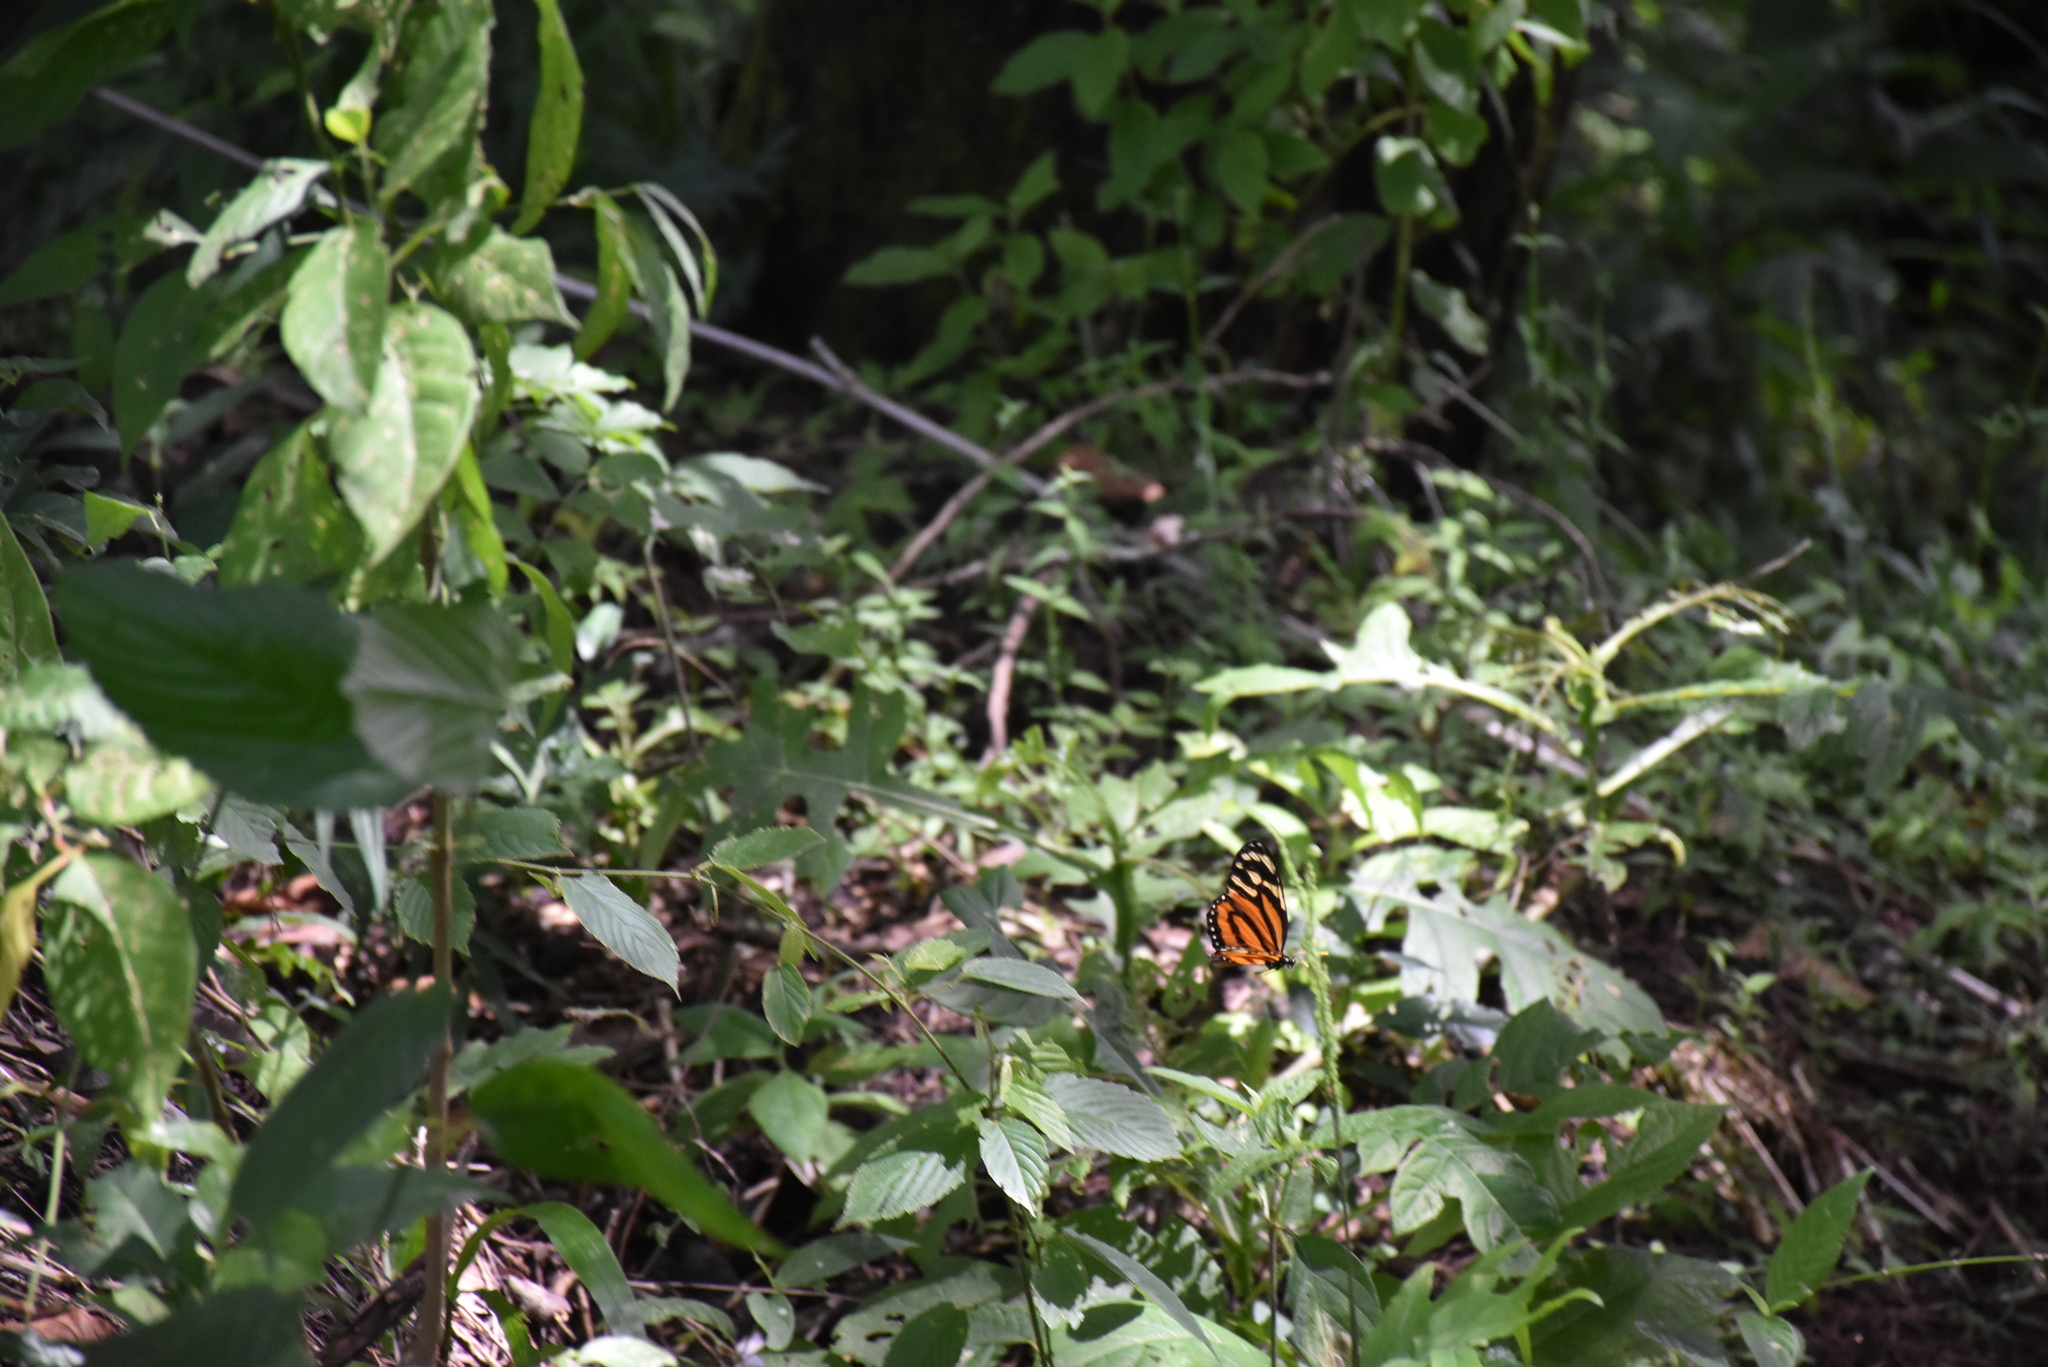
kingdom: Animalia
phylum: Arthropoda
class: Insecta
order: Lepidoptera
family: Nymphalidae
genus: Lycorea
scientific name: Lycorea cleobaea
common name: Tiger mimic-queen
